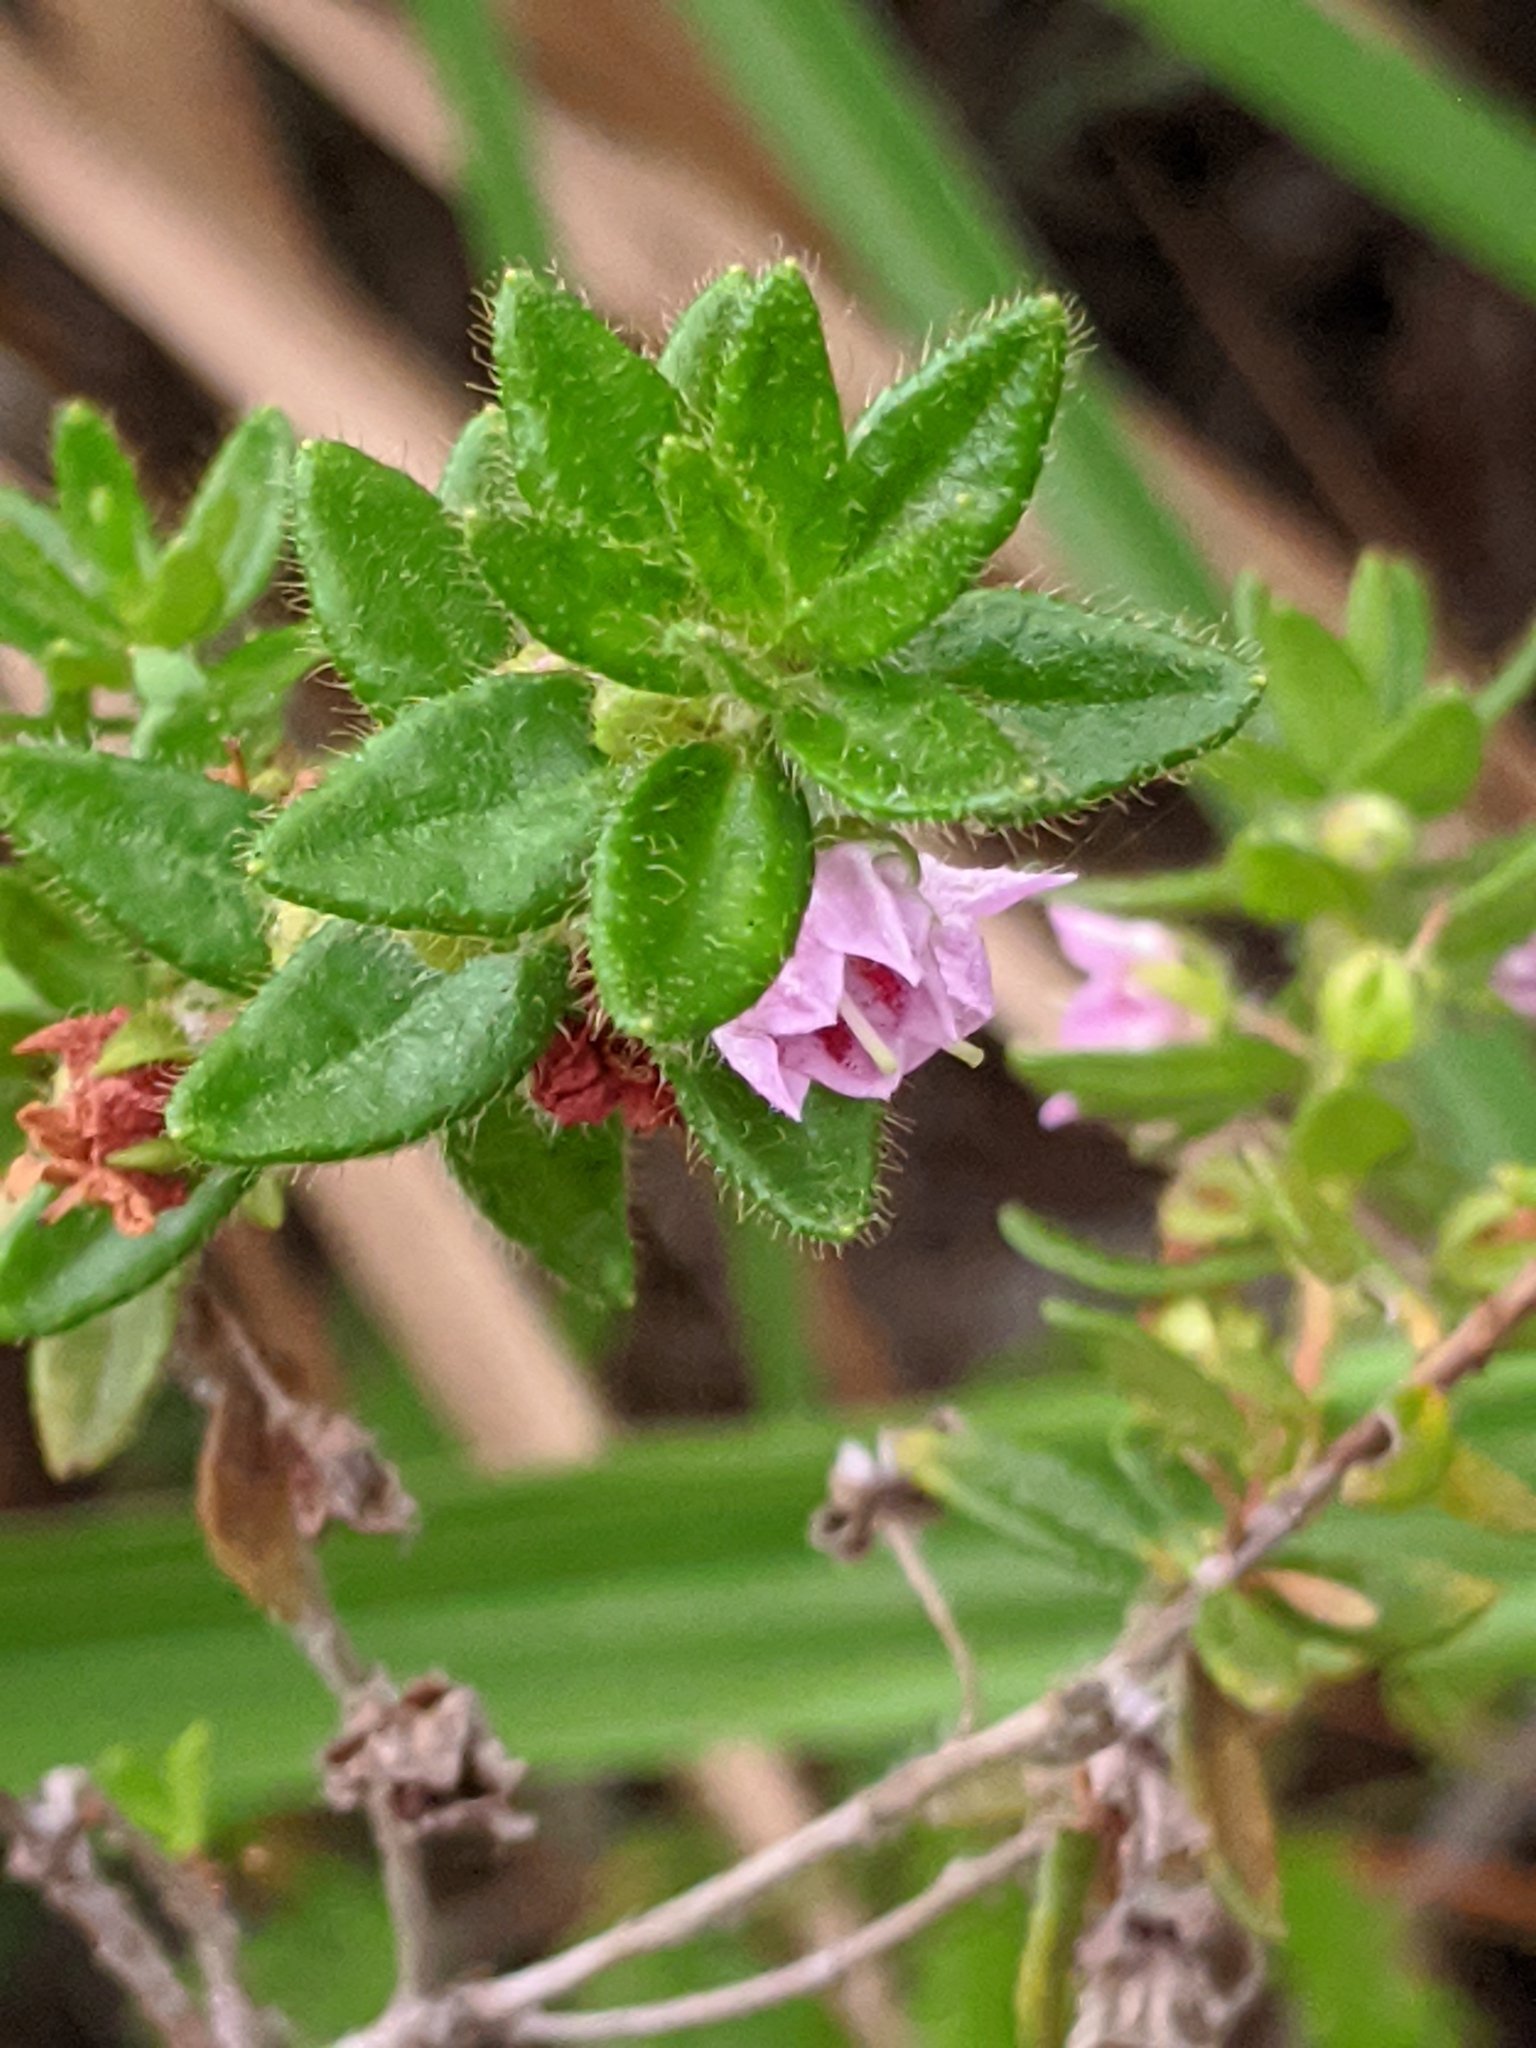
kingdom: Plantae
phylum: Tracheophyta
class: Magnoliopsida
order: Ericales
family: Ericaceae
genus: Kalmia
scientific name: Kalmia hirsuta
